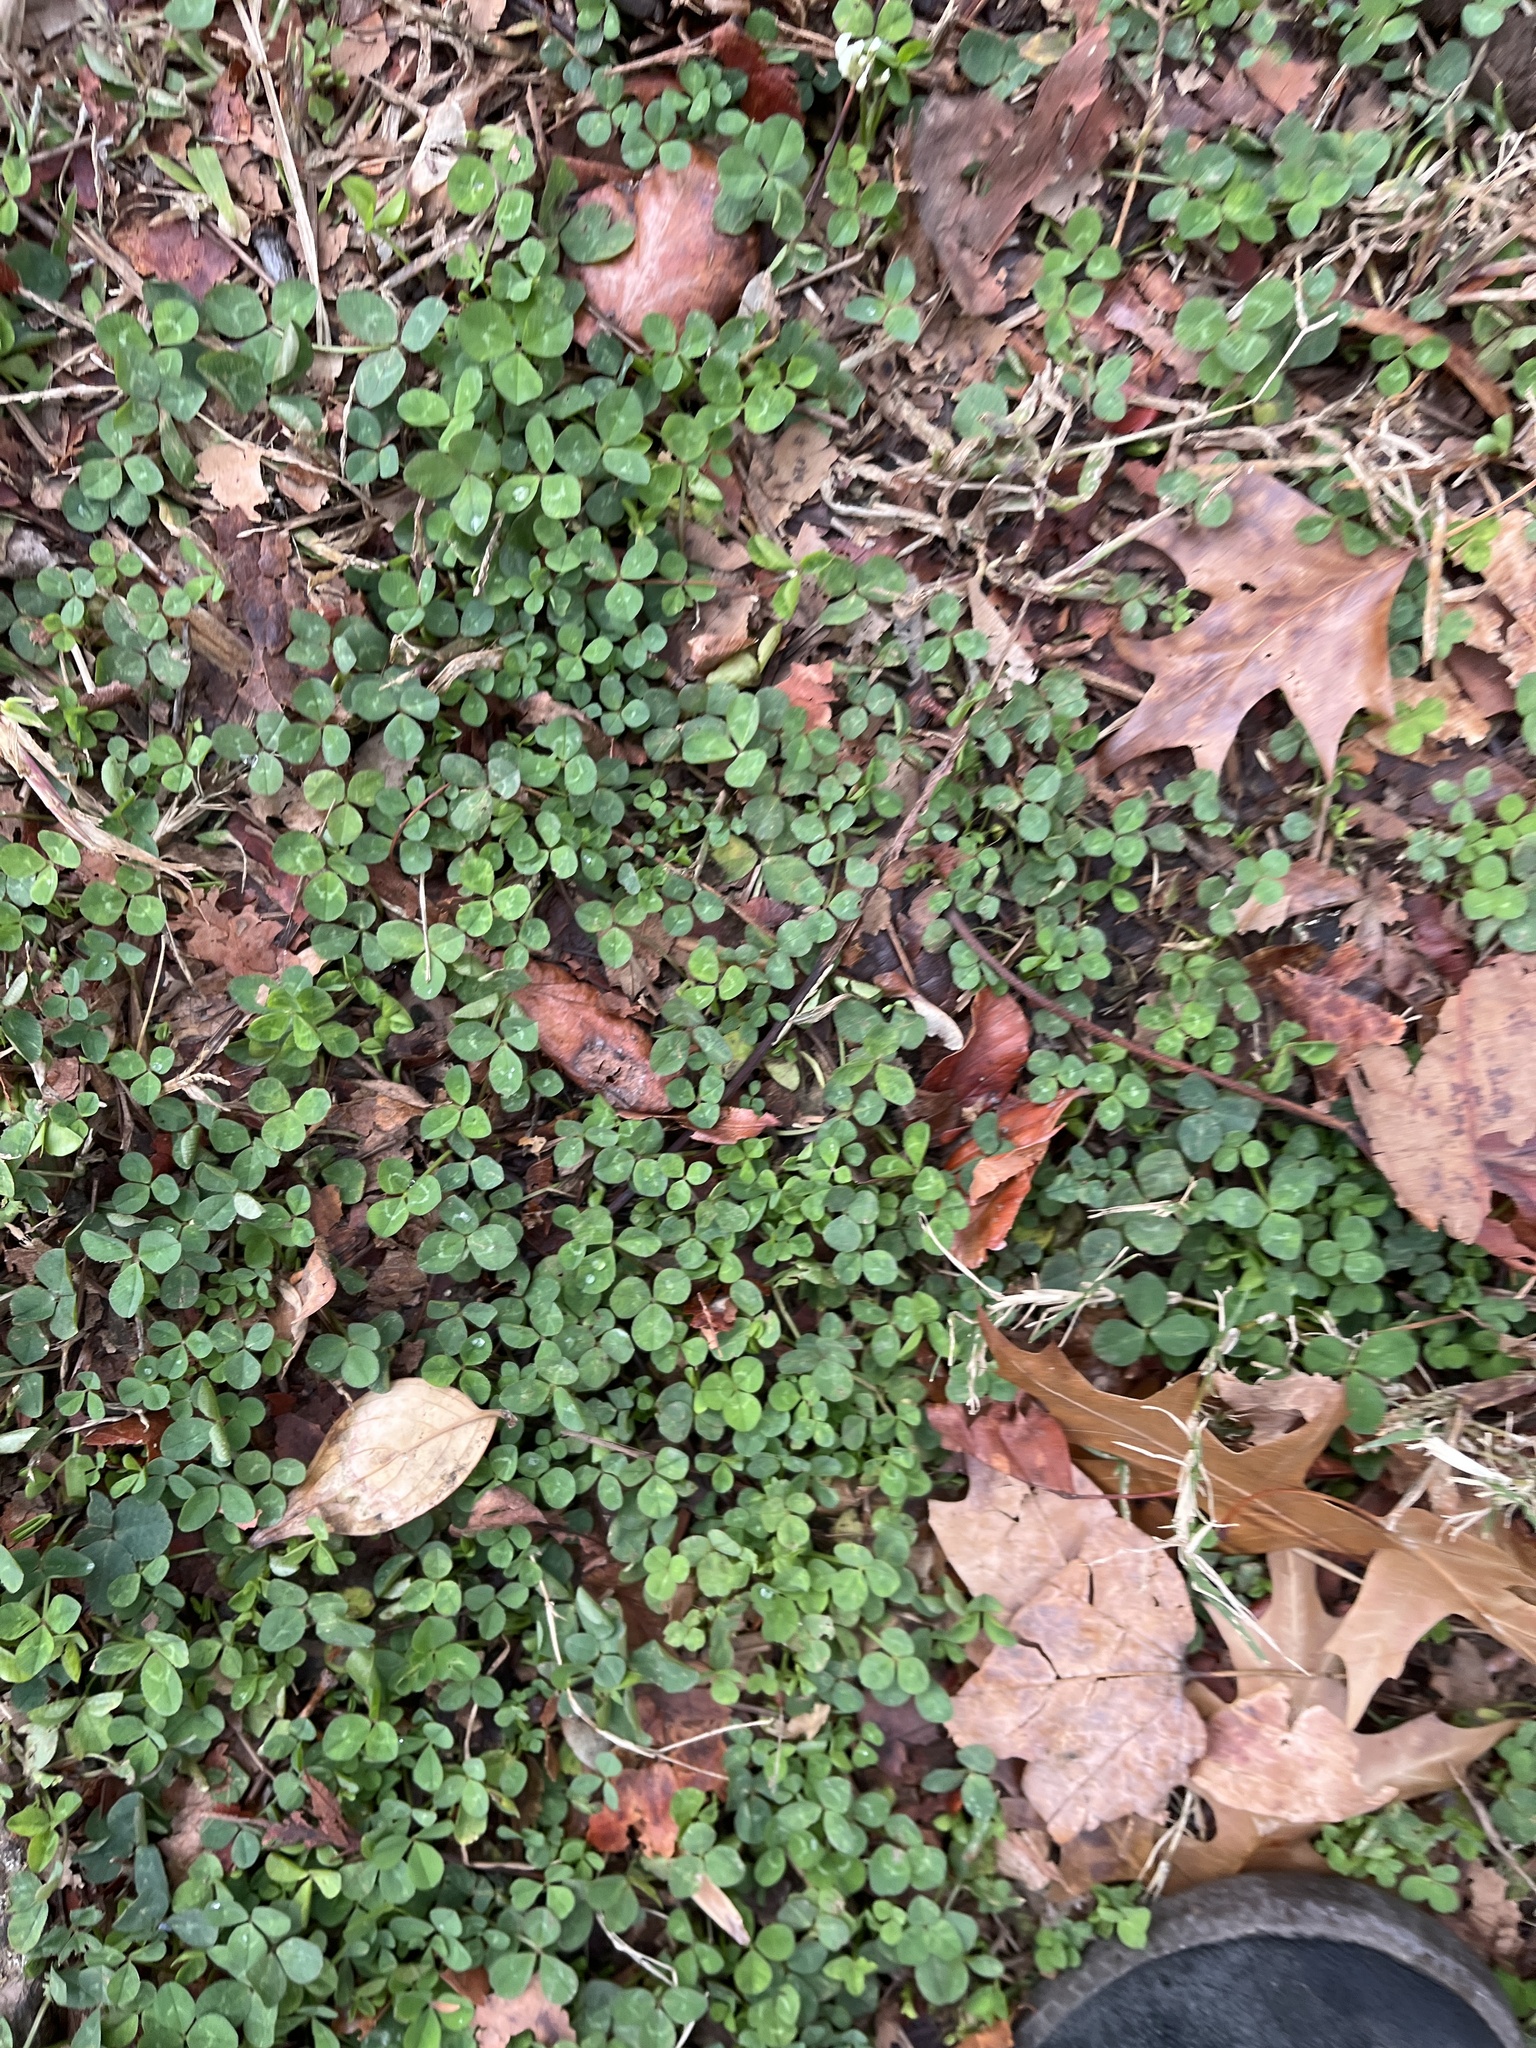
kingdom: Plantae
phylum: Tracheophyta
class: Magnoliopsida
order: Fabales
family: Fabaceae
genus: Trifolium
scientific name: Trifolium repens
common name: White clover
